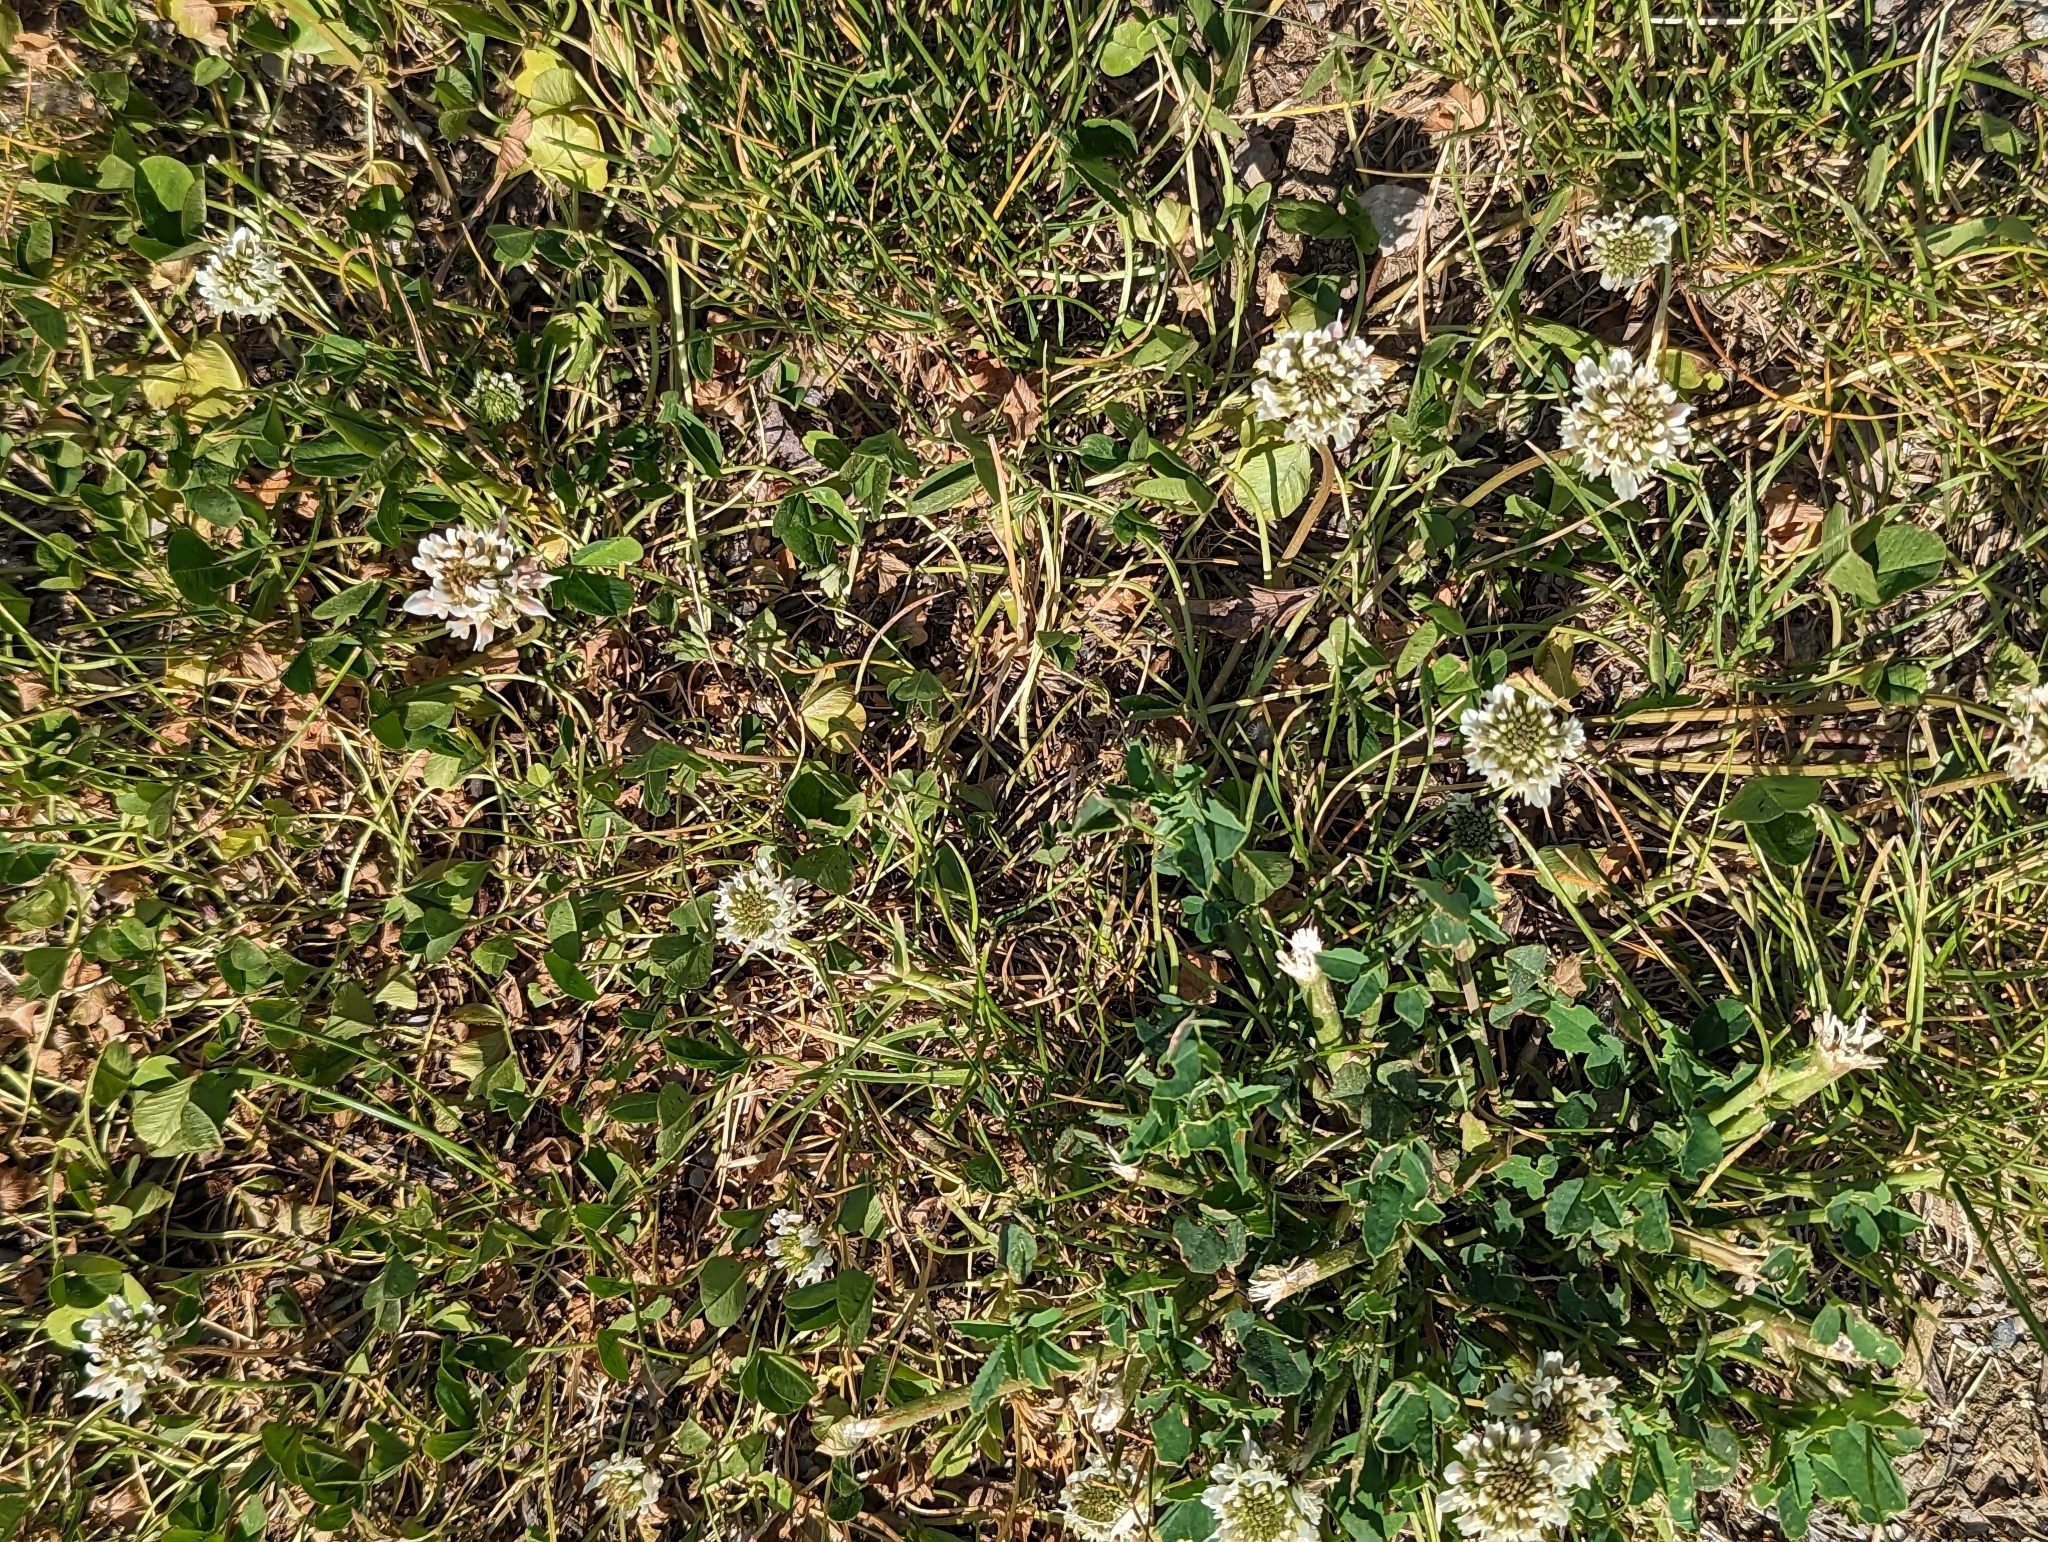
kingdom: Plantae
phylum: Tracheophyta
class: Magnoliopsida
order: Fabales
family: Fabaceae
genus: Trifolium
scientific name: Trifolium repens
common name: White clover
